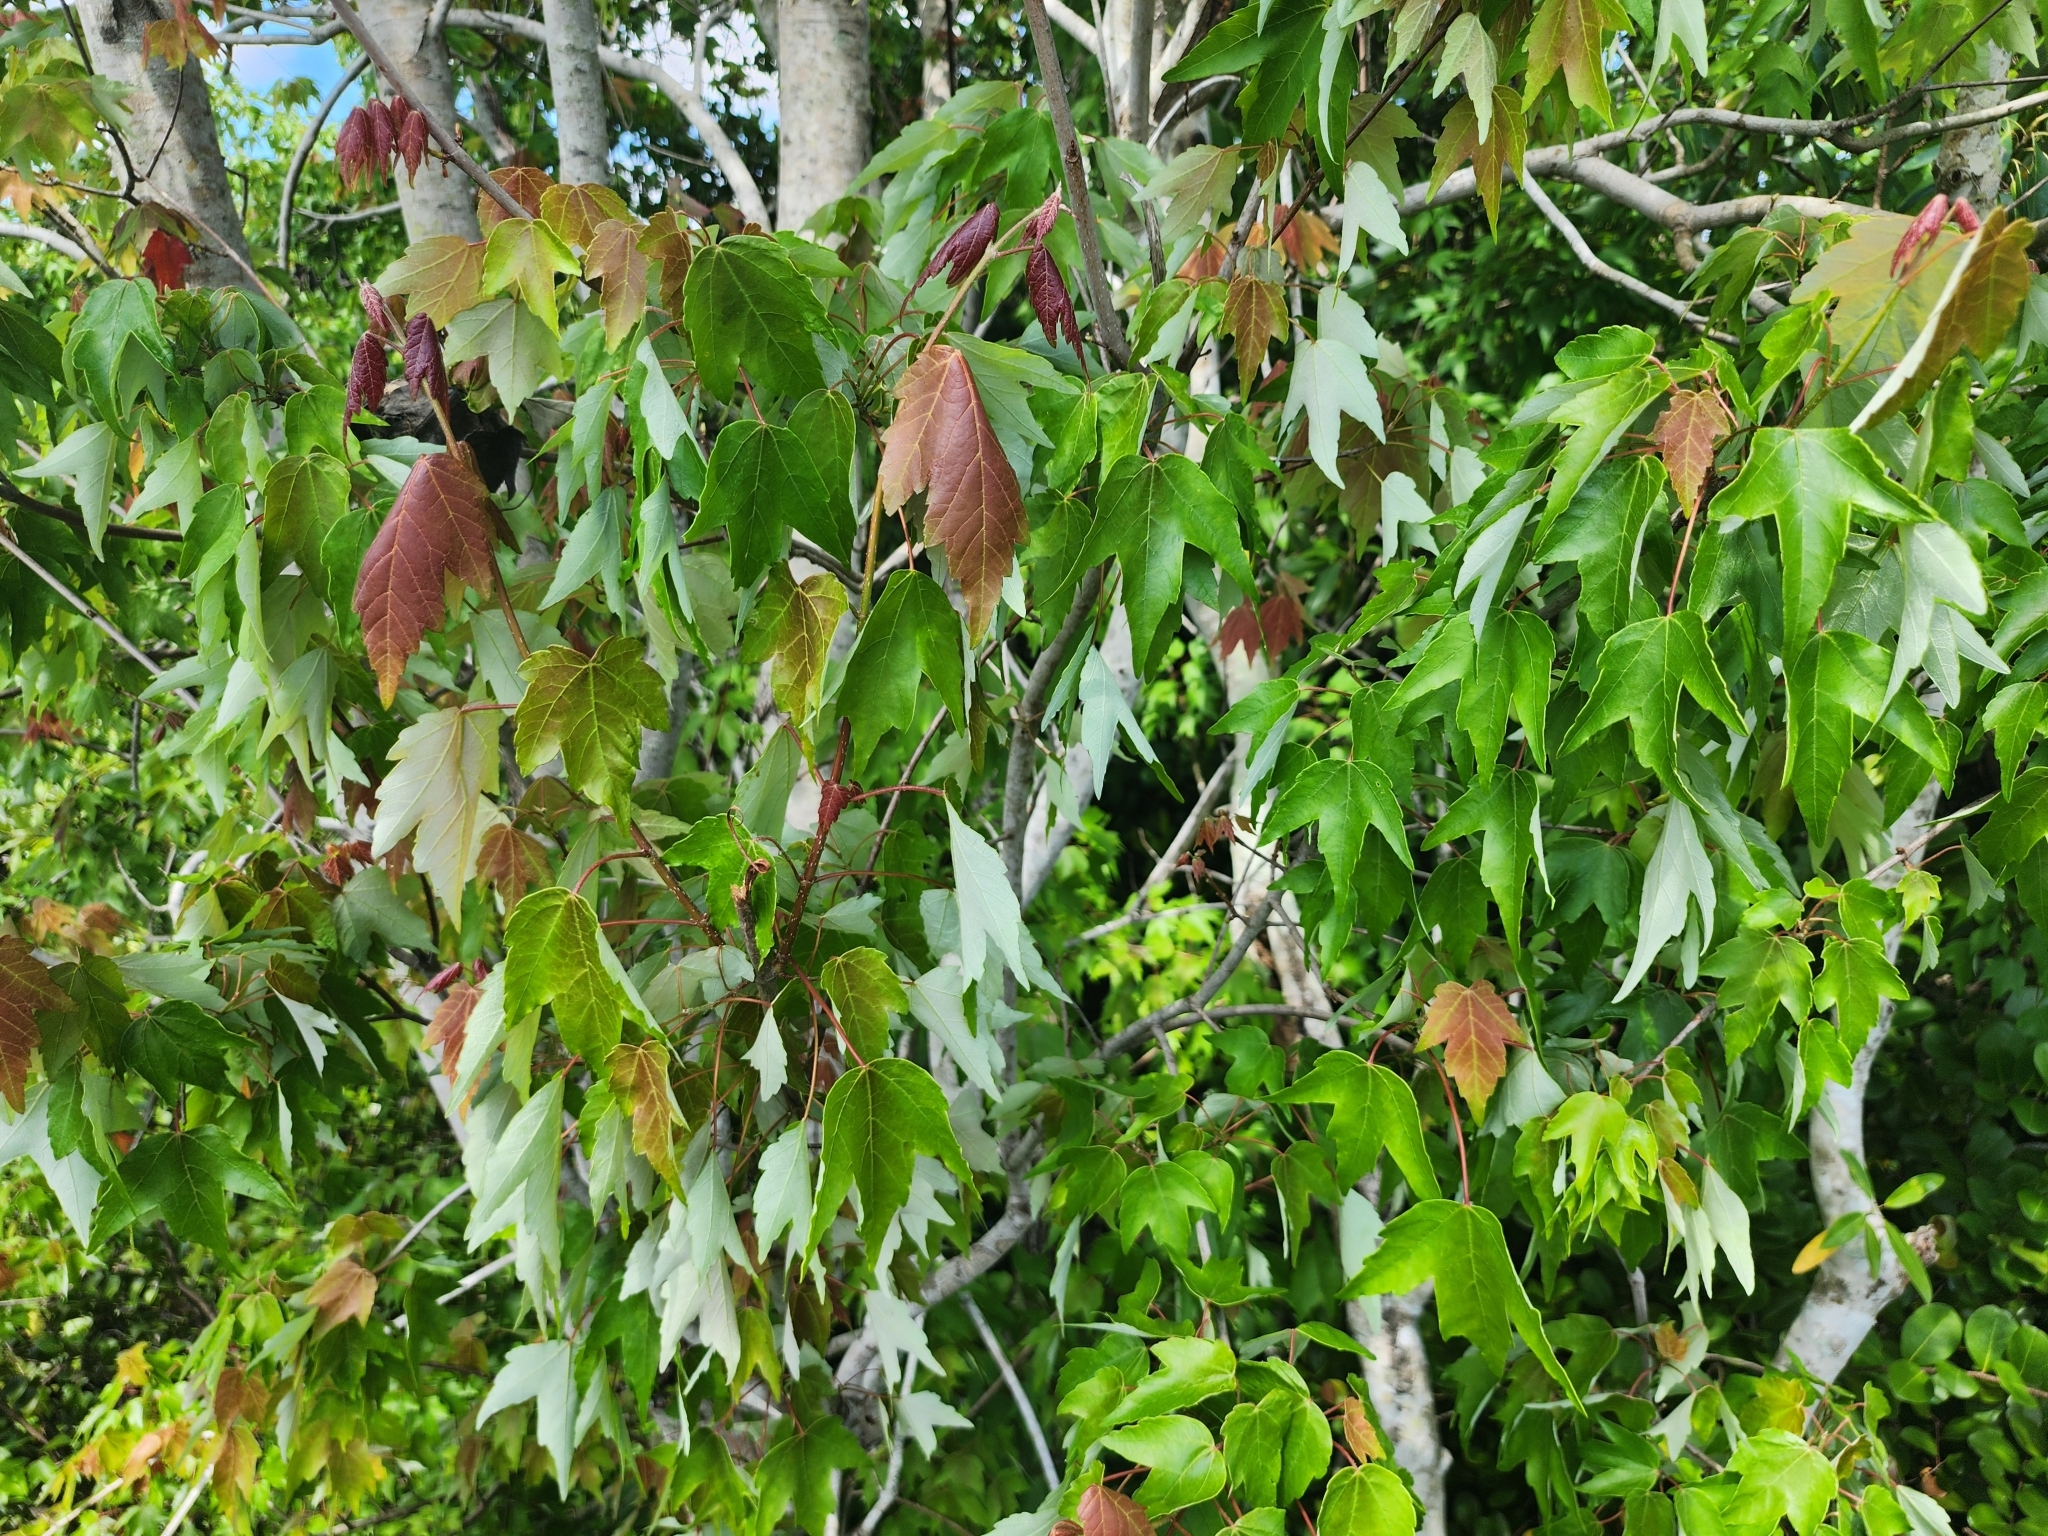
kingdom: Plantae
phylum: Tracheophyta
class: Magnoliopsida
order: Sapindales
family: Sapindaceae
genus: Acer
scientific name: Acer rubrum
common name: Red maple
